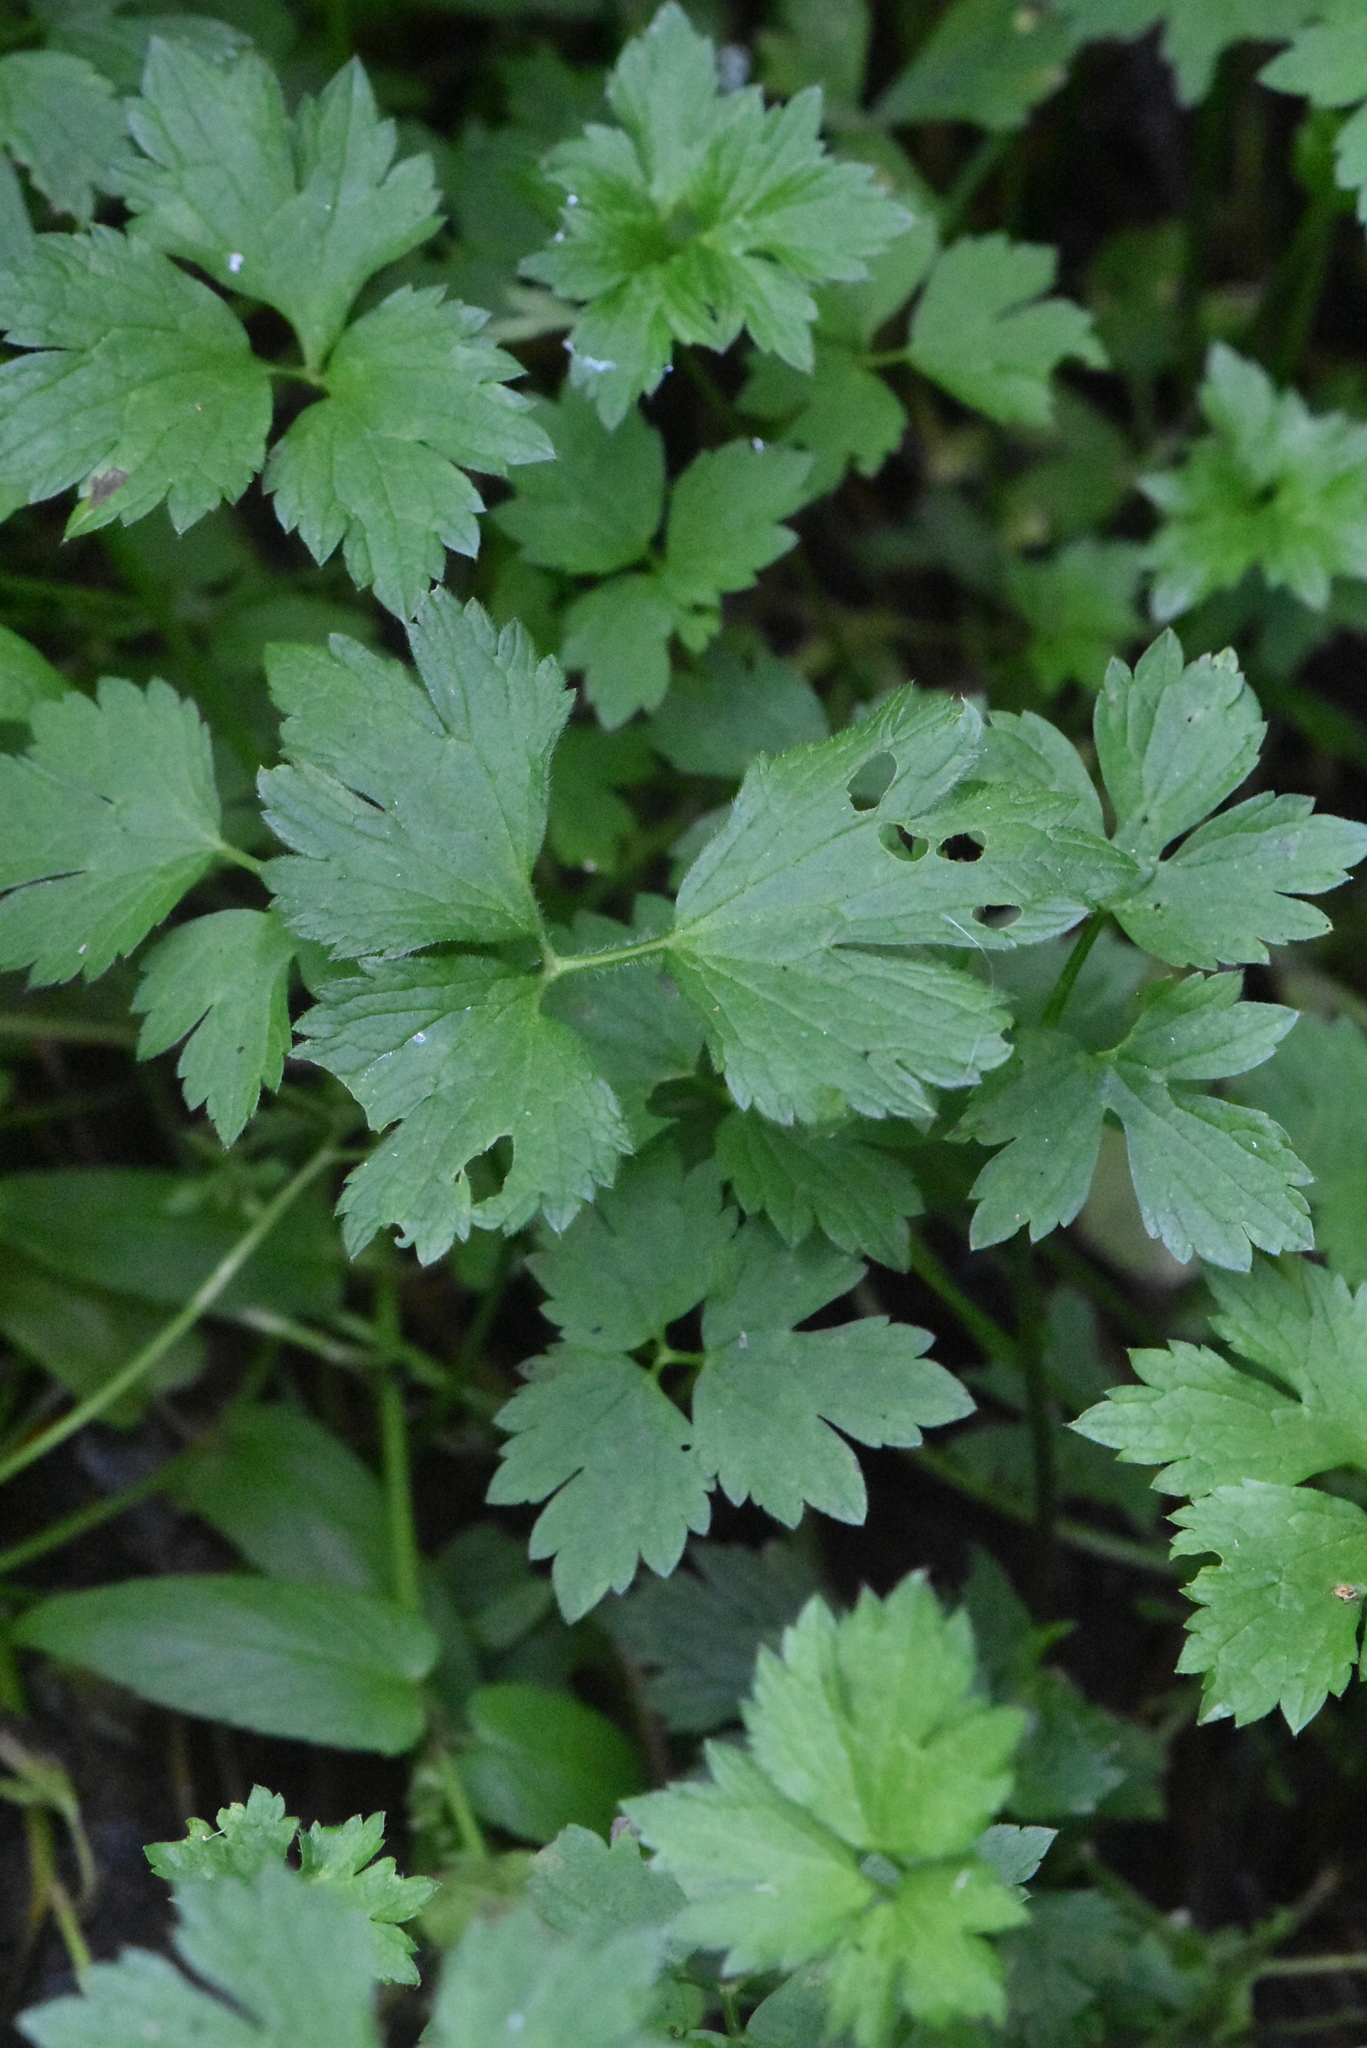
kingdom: Plantae
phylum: Tracheophyta
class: Magnoliopsida
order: Ranunculales
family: Ranunculaceae
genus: Ranunculus
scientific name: Ranunculus repens
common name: Creeping buttercup
